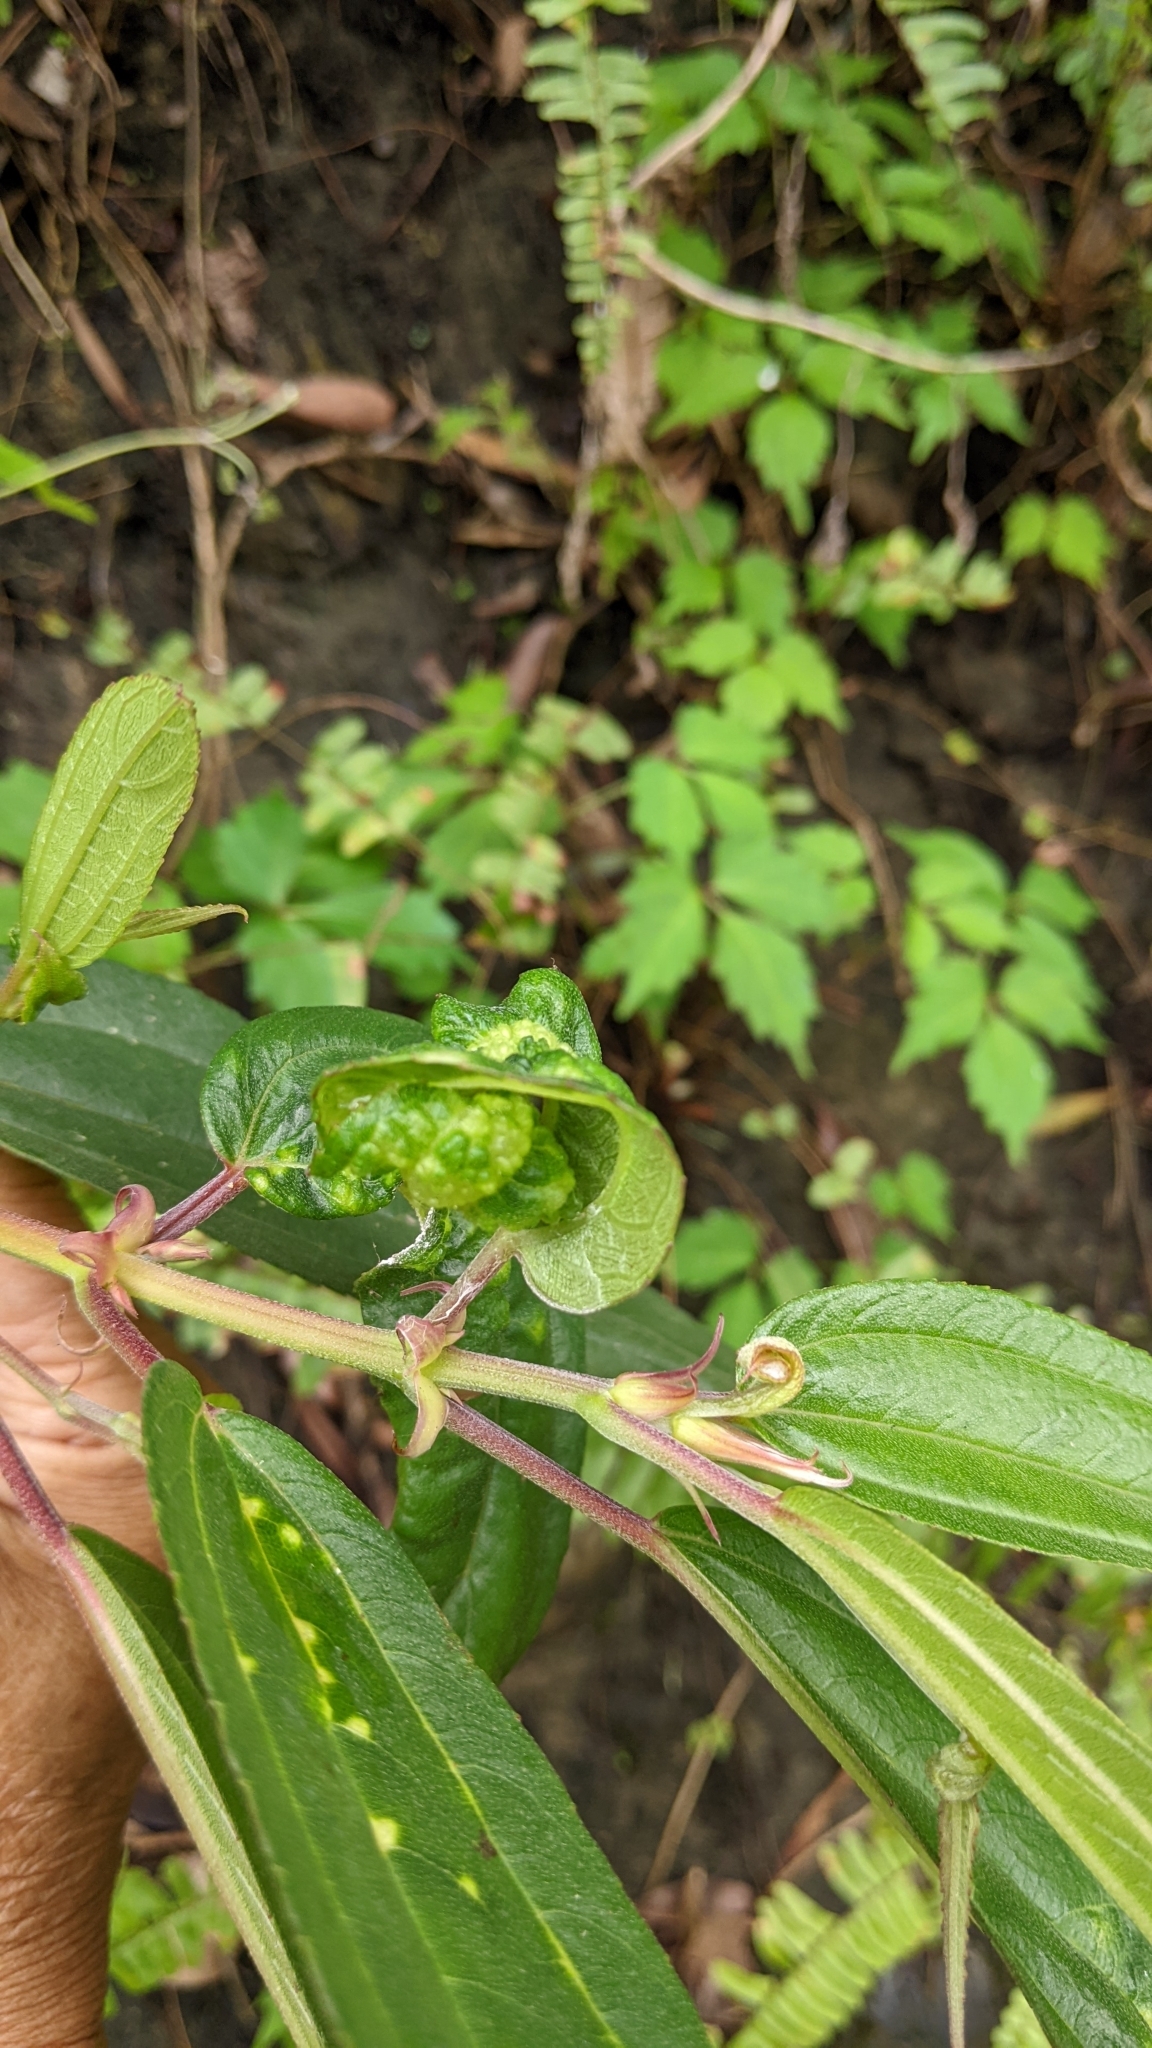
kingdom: Plantae
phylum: Tracheophyta
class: Magnoliopsida
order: Rosales
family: Urticaceae
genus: Boehmeria
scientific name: Boehmeria densiflora
